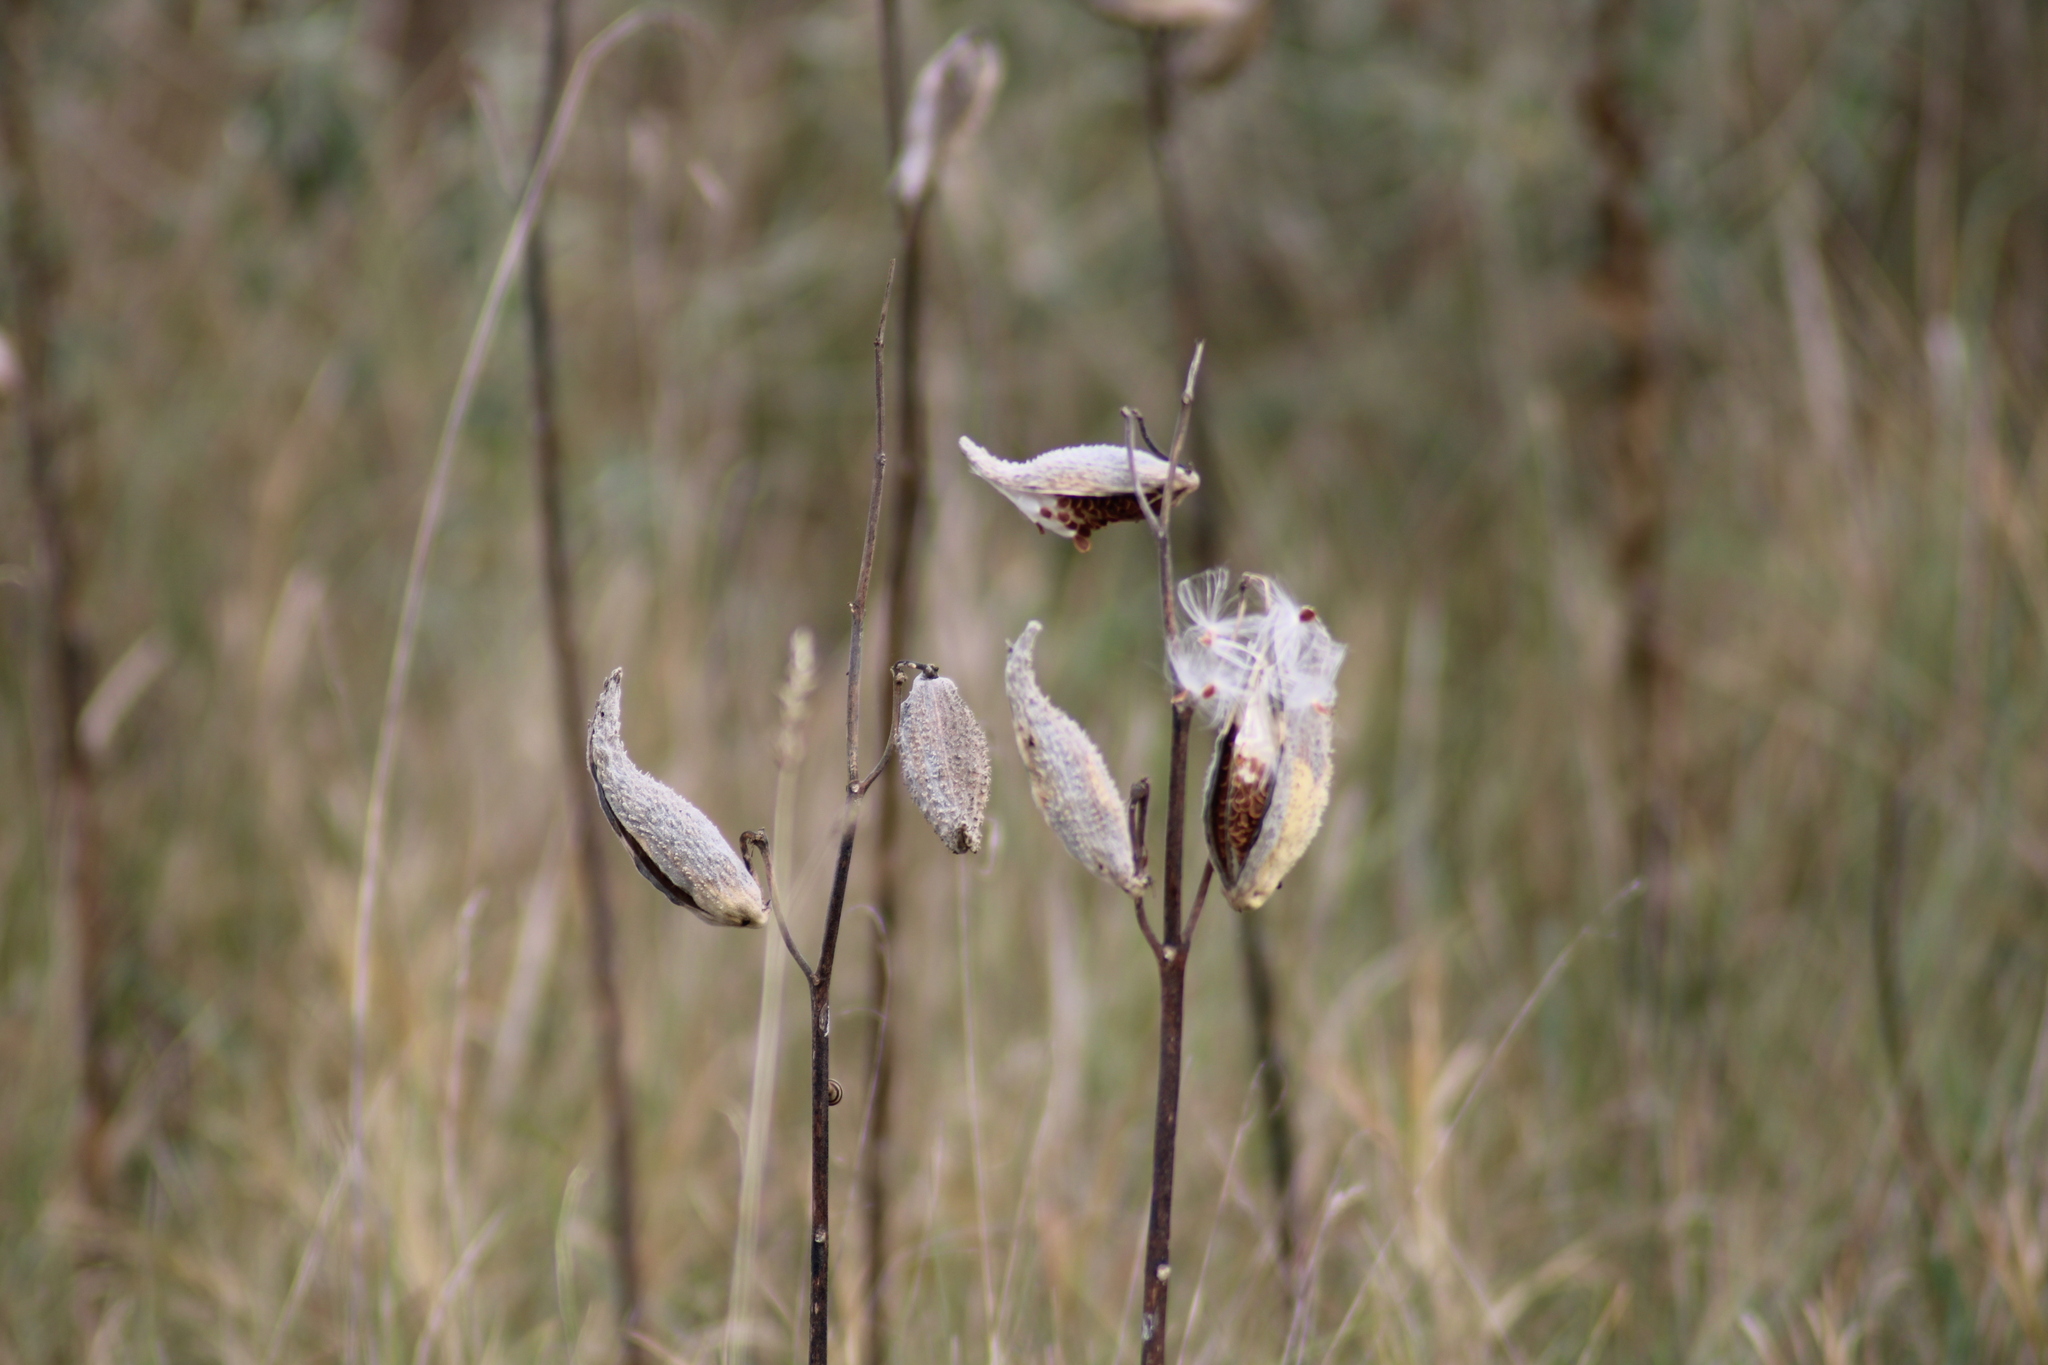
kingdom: Plantae
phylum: Tracheophyta
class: Magnoliopsida
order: Gentianales
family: Apocynaceae
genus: Asclepias
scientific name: Asclepias syriaca
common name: Common milkweed
